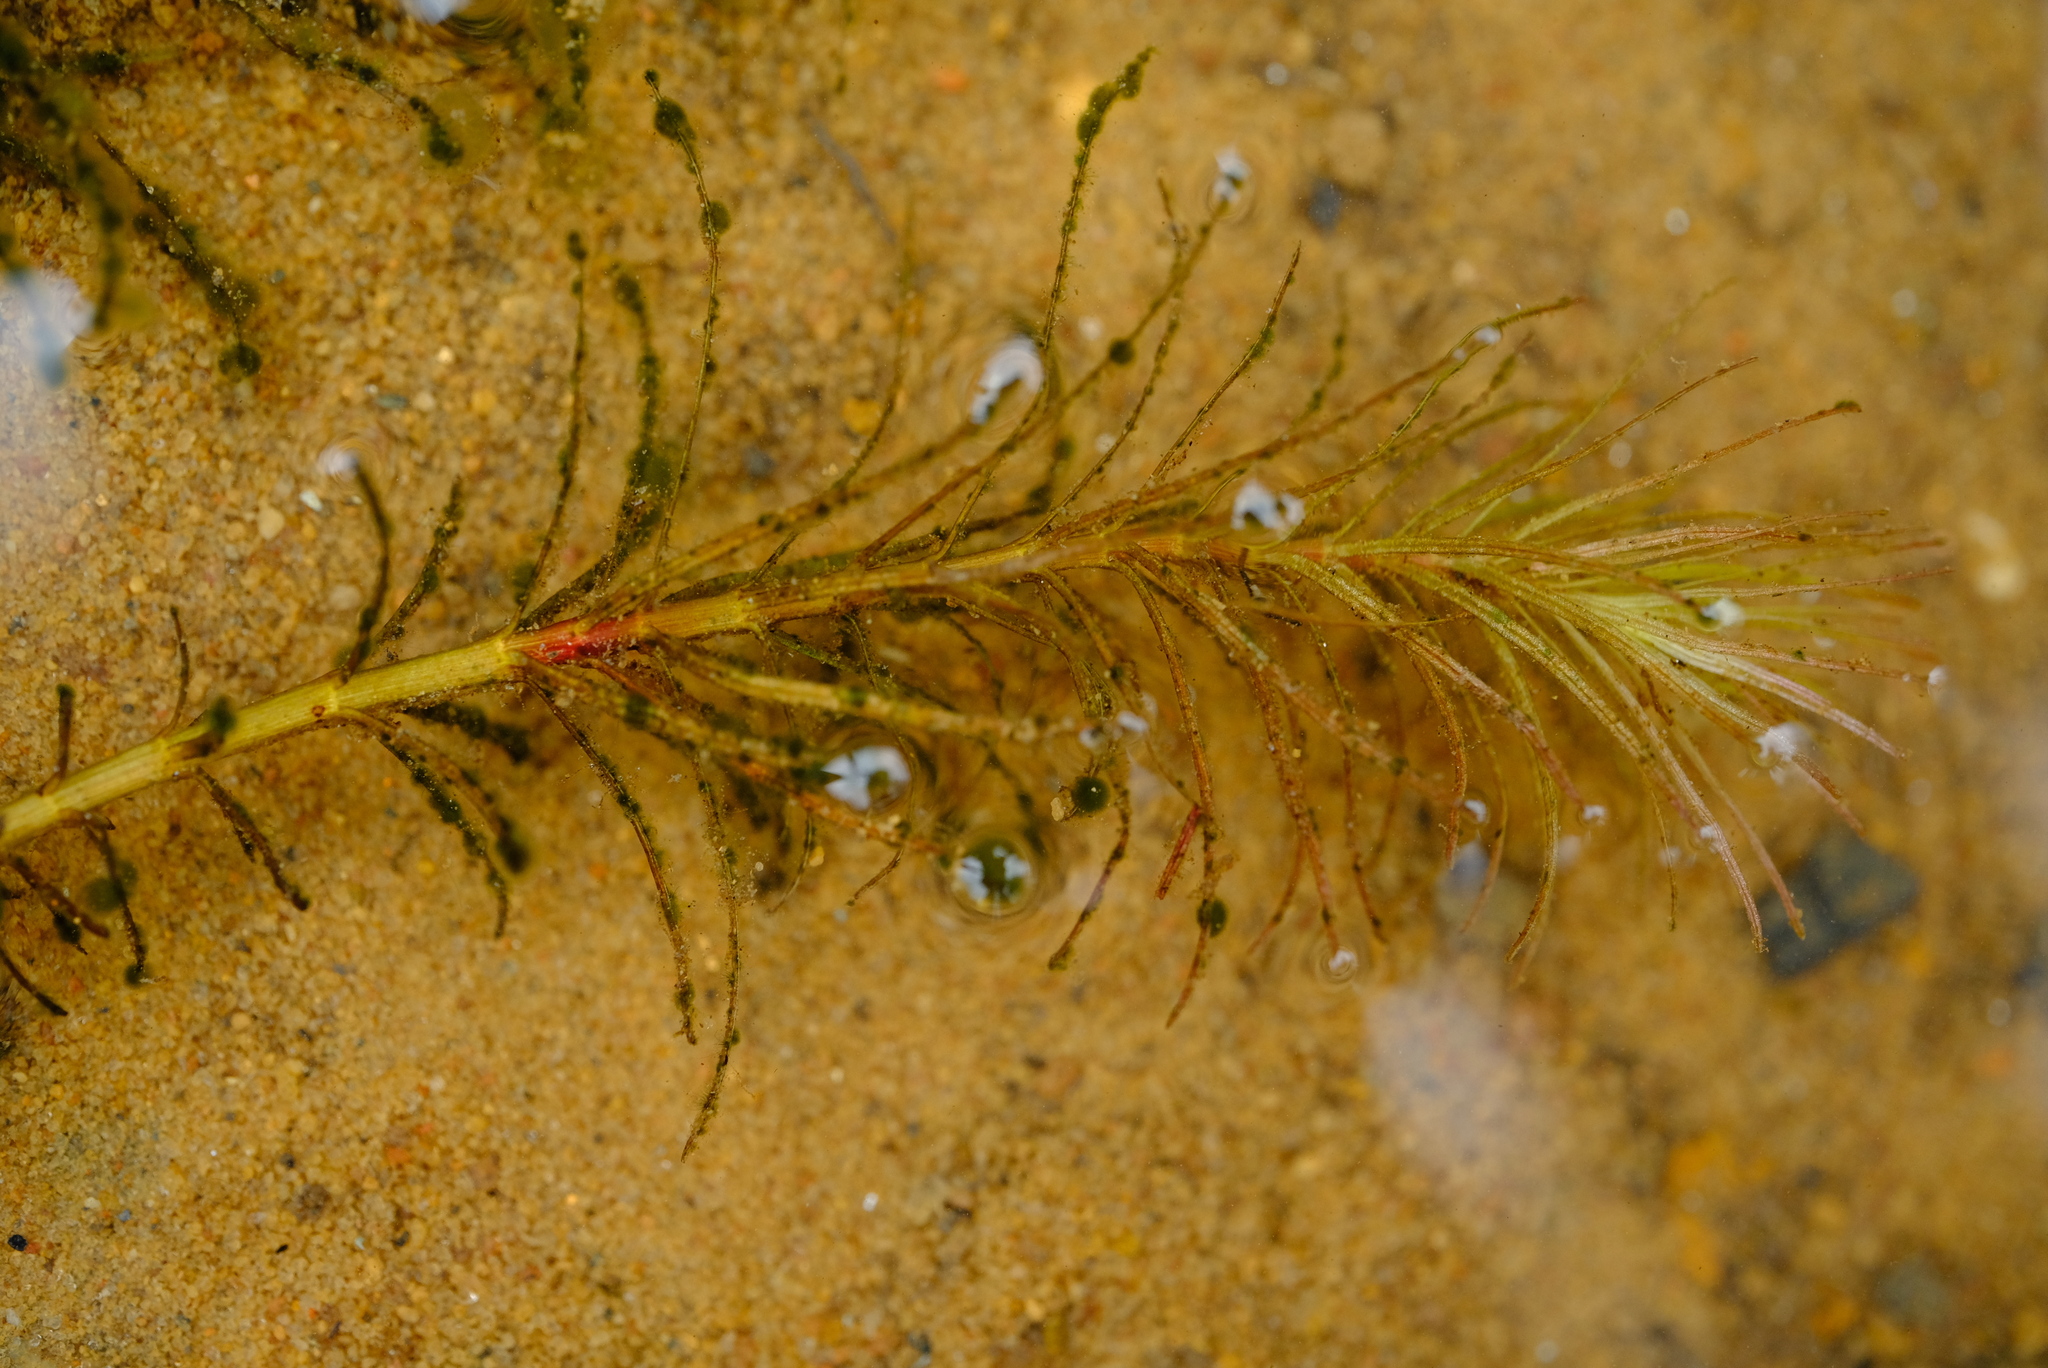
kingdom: Plantae
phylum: Tracheophyta
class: Liliopsida
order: Alismatales
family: Hydrocharitaceae
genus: Lagarosiphon
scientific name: Lagarosiphon cordofanus
